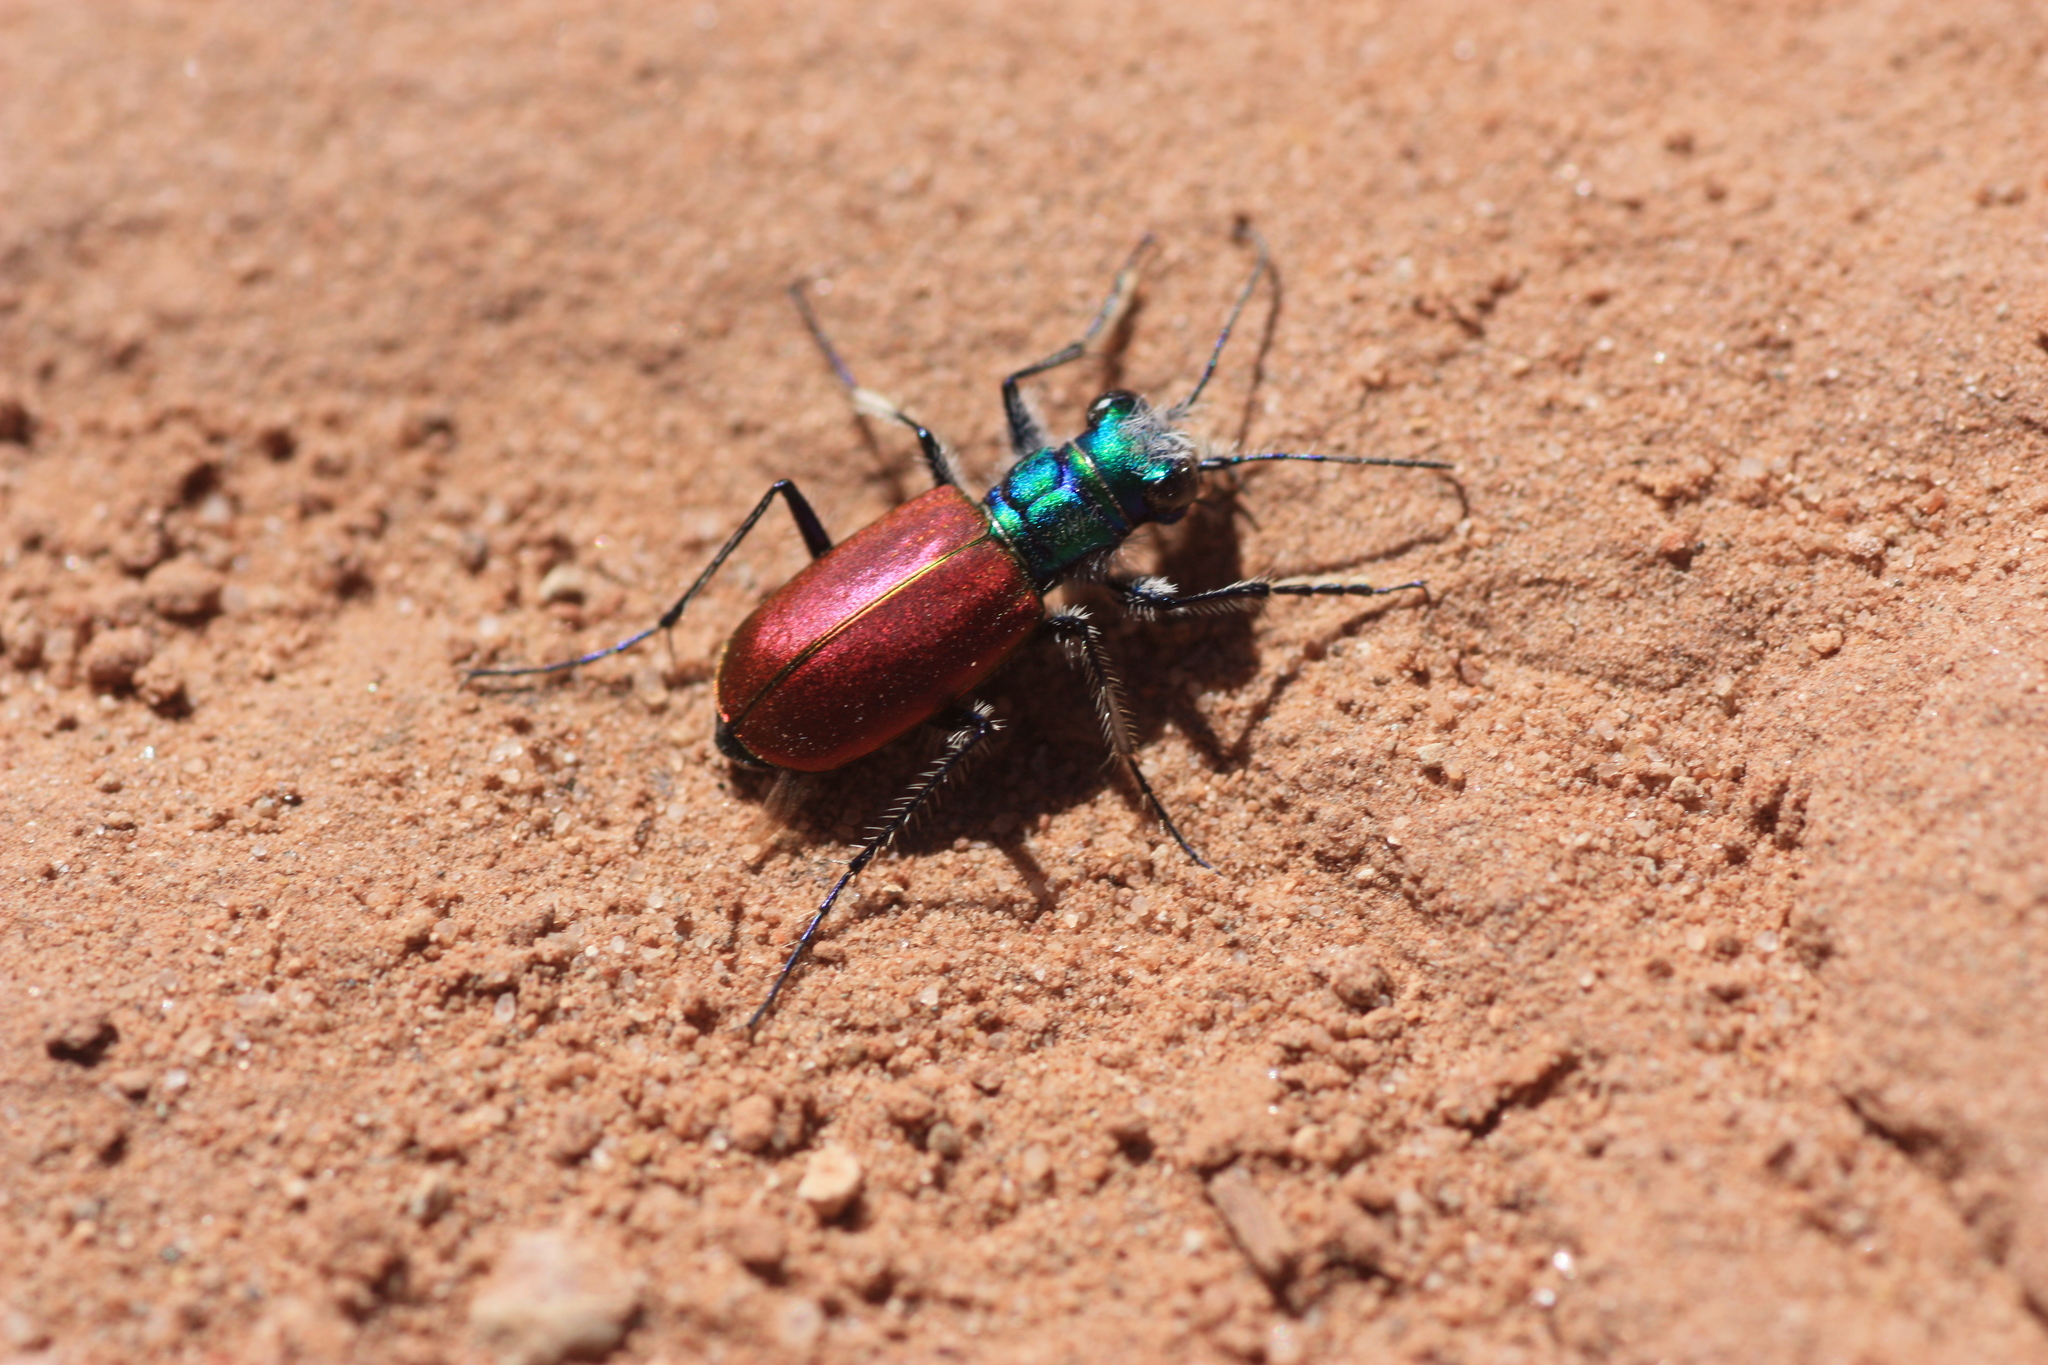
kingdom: Animalia
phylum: Arthropoda
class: Insecta
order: Coleoptera
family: Carabidae
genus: Cicindela
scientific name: Cicindela scutellaris
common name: Festive tiger beetle
